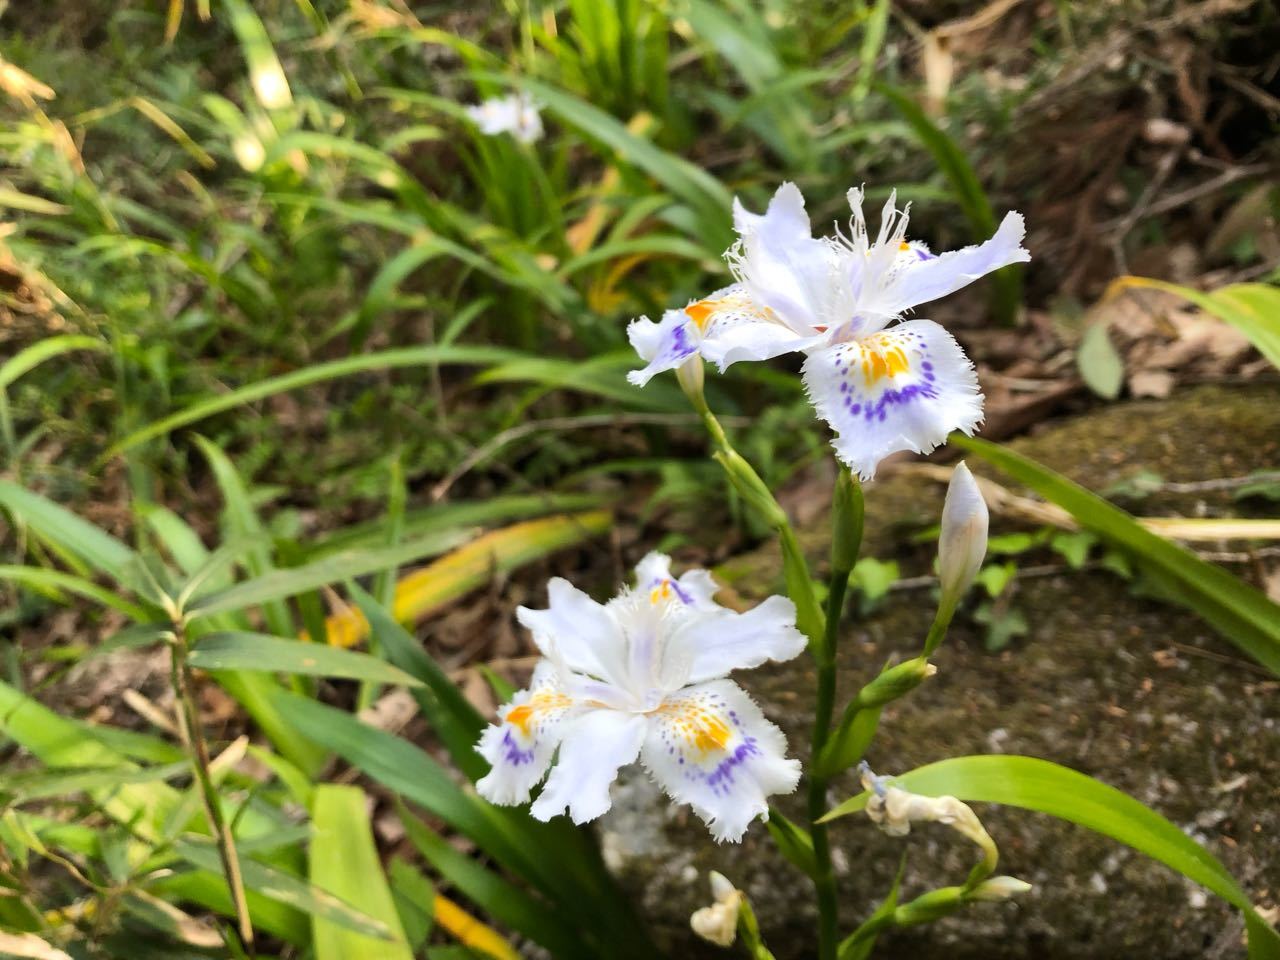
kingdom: Plantae
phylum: Tracheophyta
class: Liliopsida
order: Asparagales
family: Iridaceae
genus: Iris
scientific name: Iris japonica
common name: Butterfly-flower
